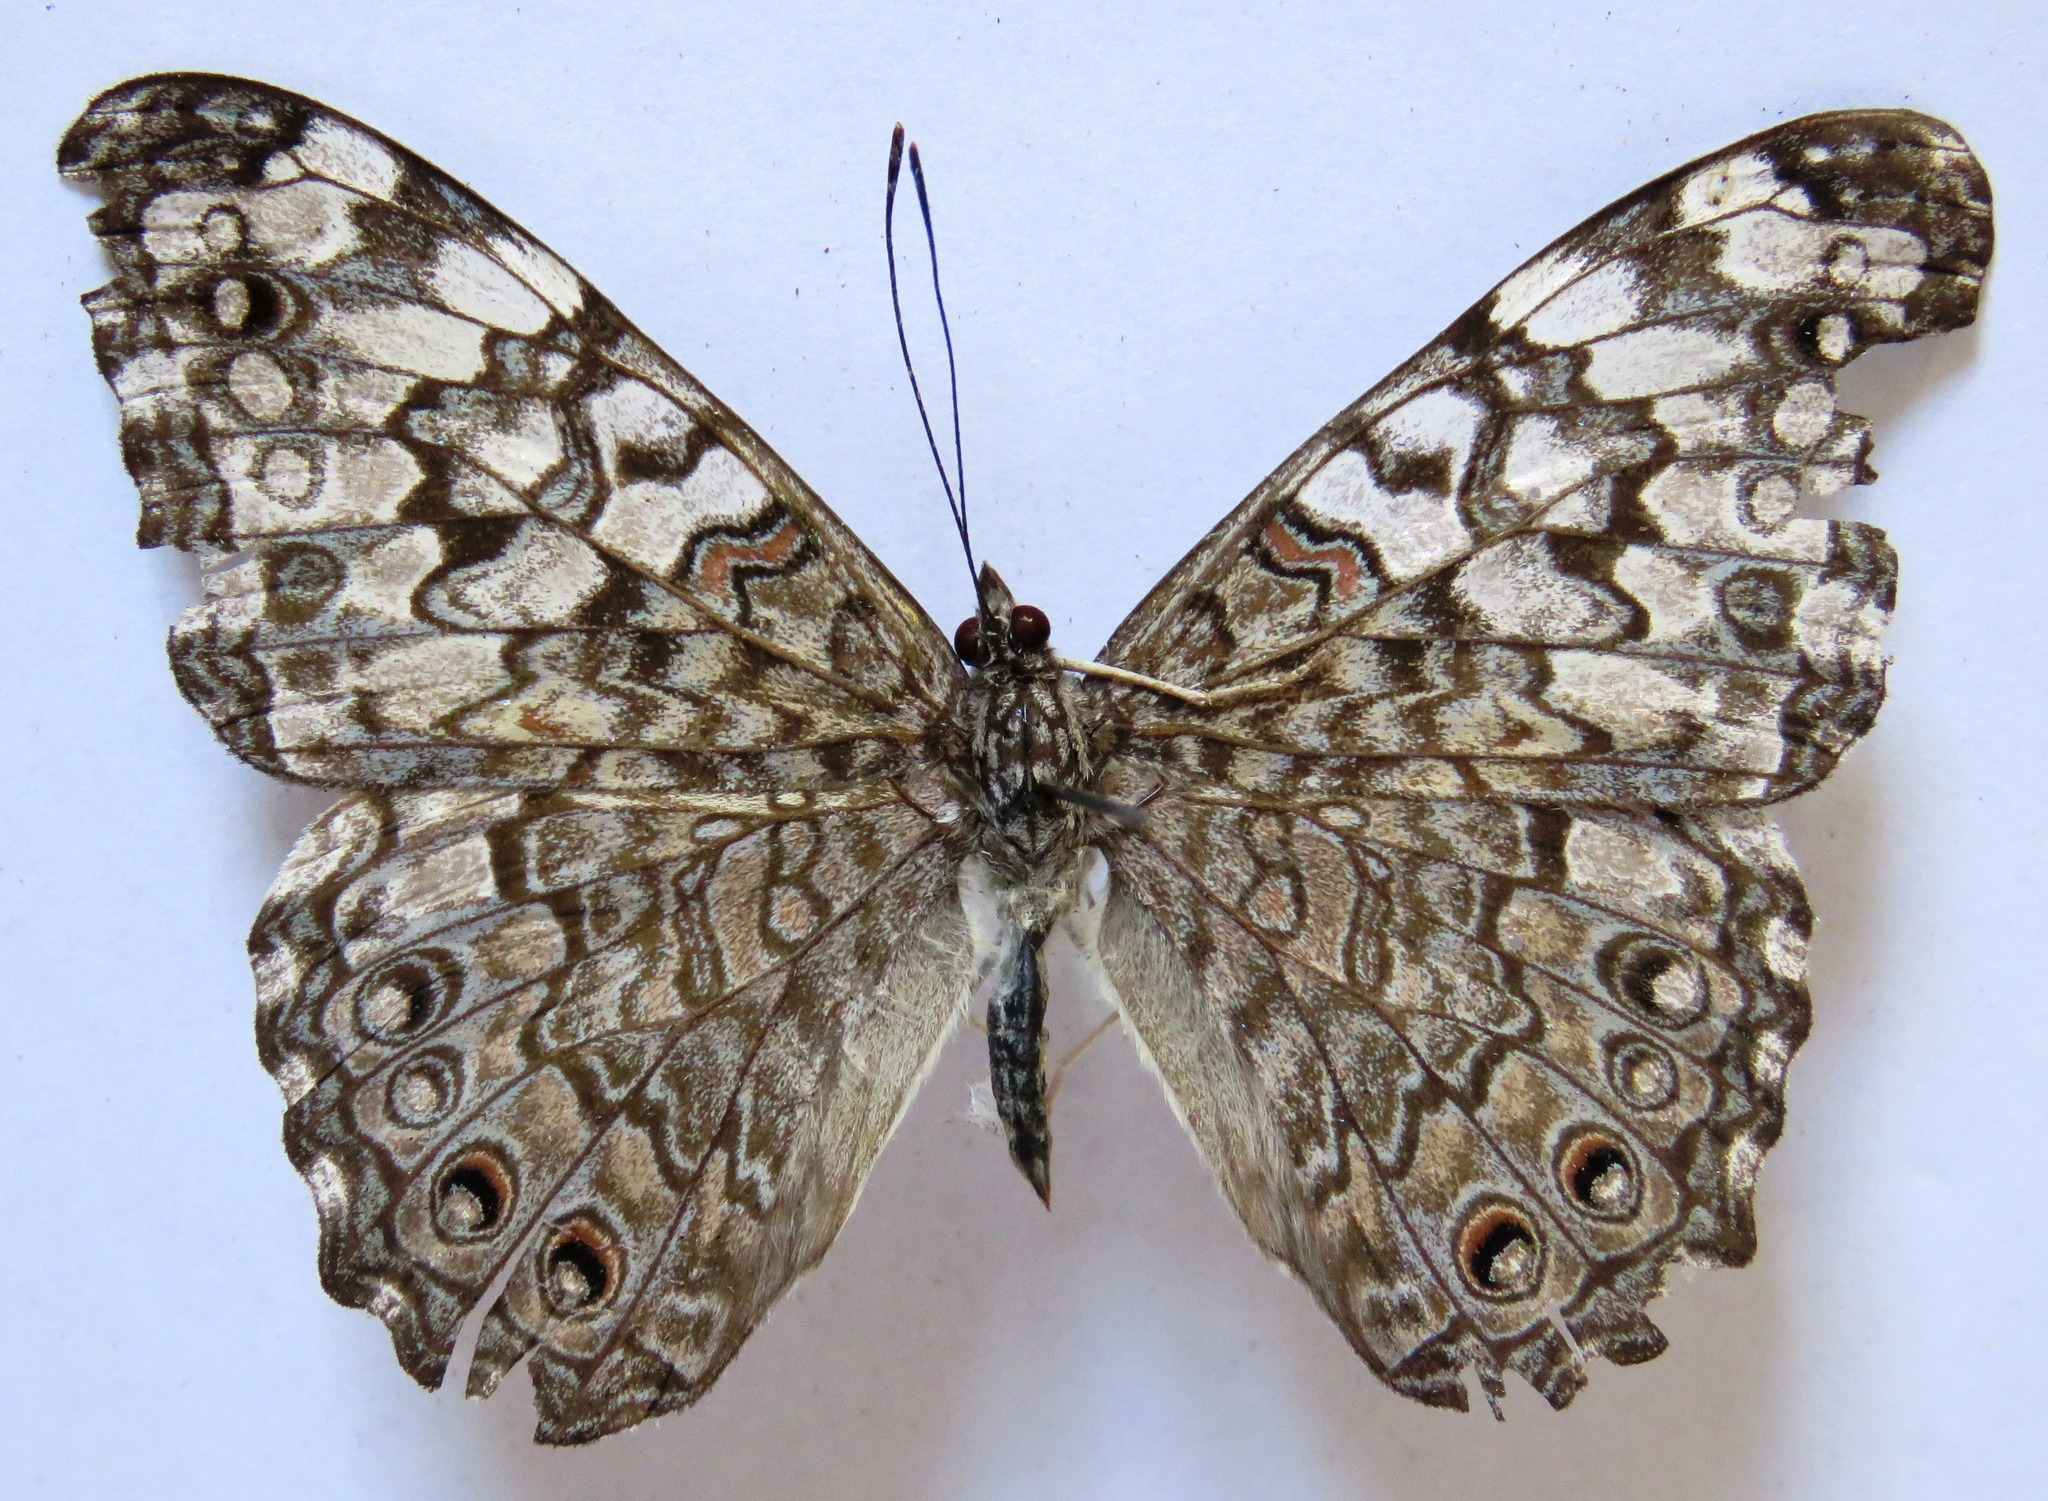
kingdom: Animalia
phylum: Arthropoda
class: Insecta
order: Lepidoptera
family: Nymphalidae
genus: Hamadryas
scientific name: Hamadryas februa
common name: Gray cracker
